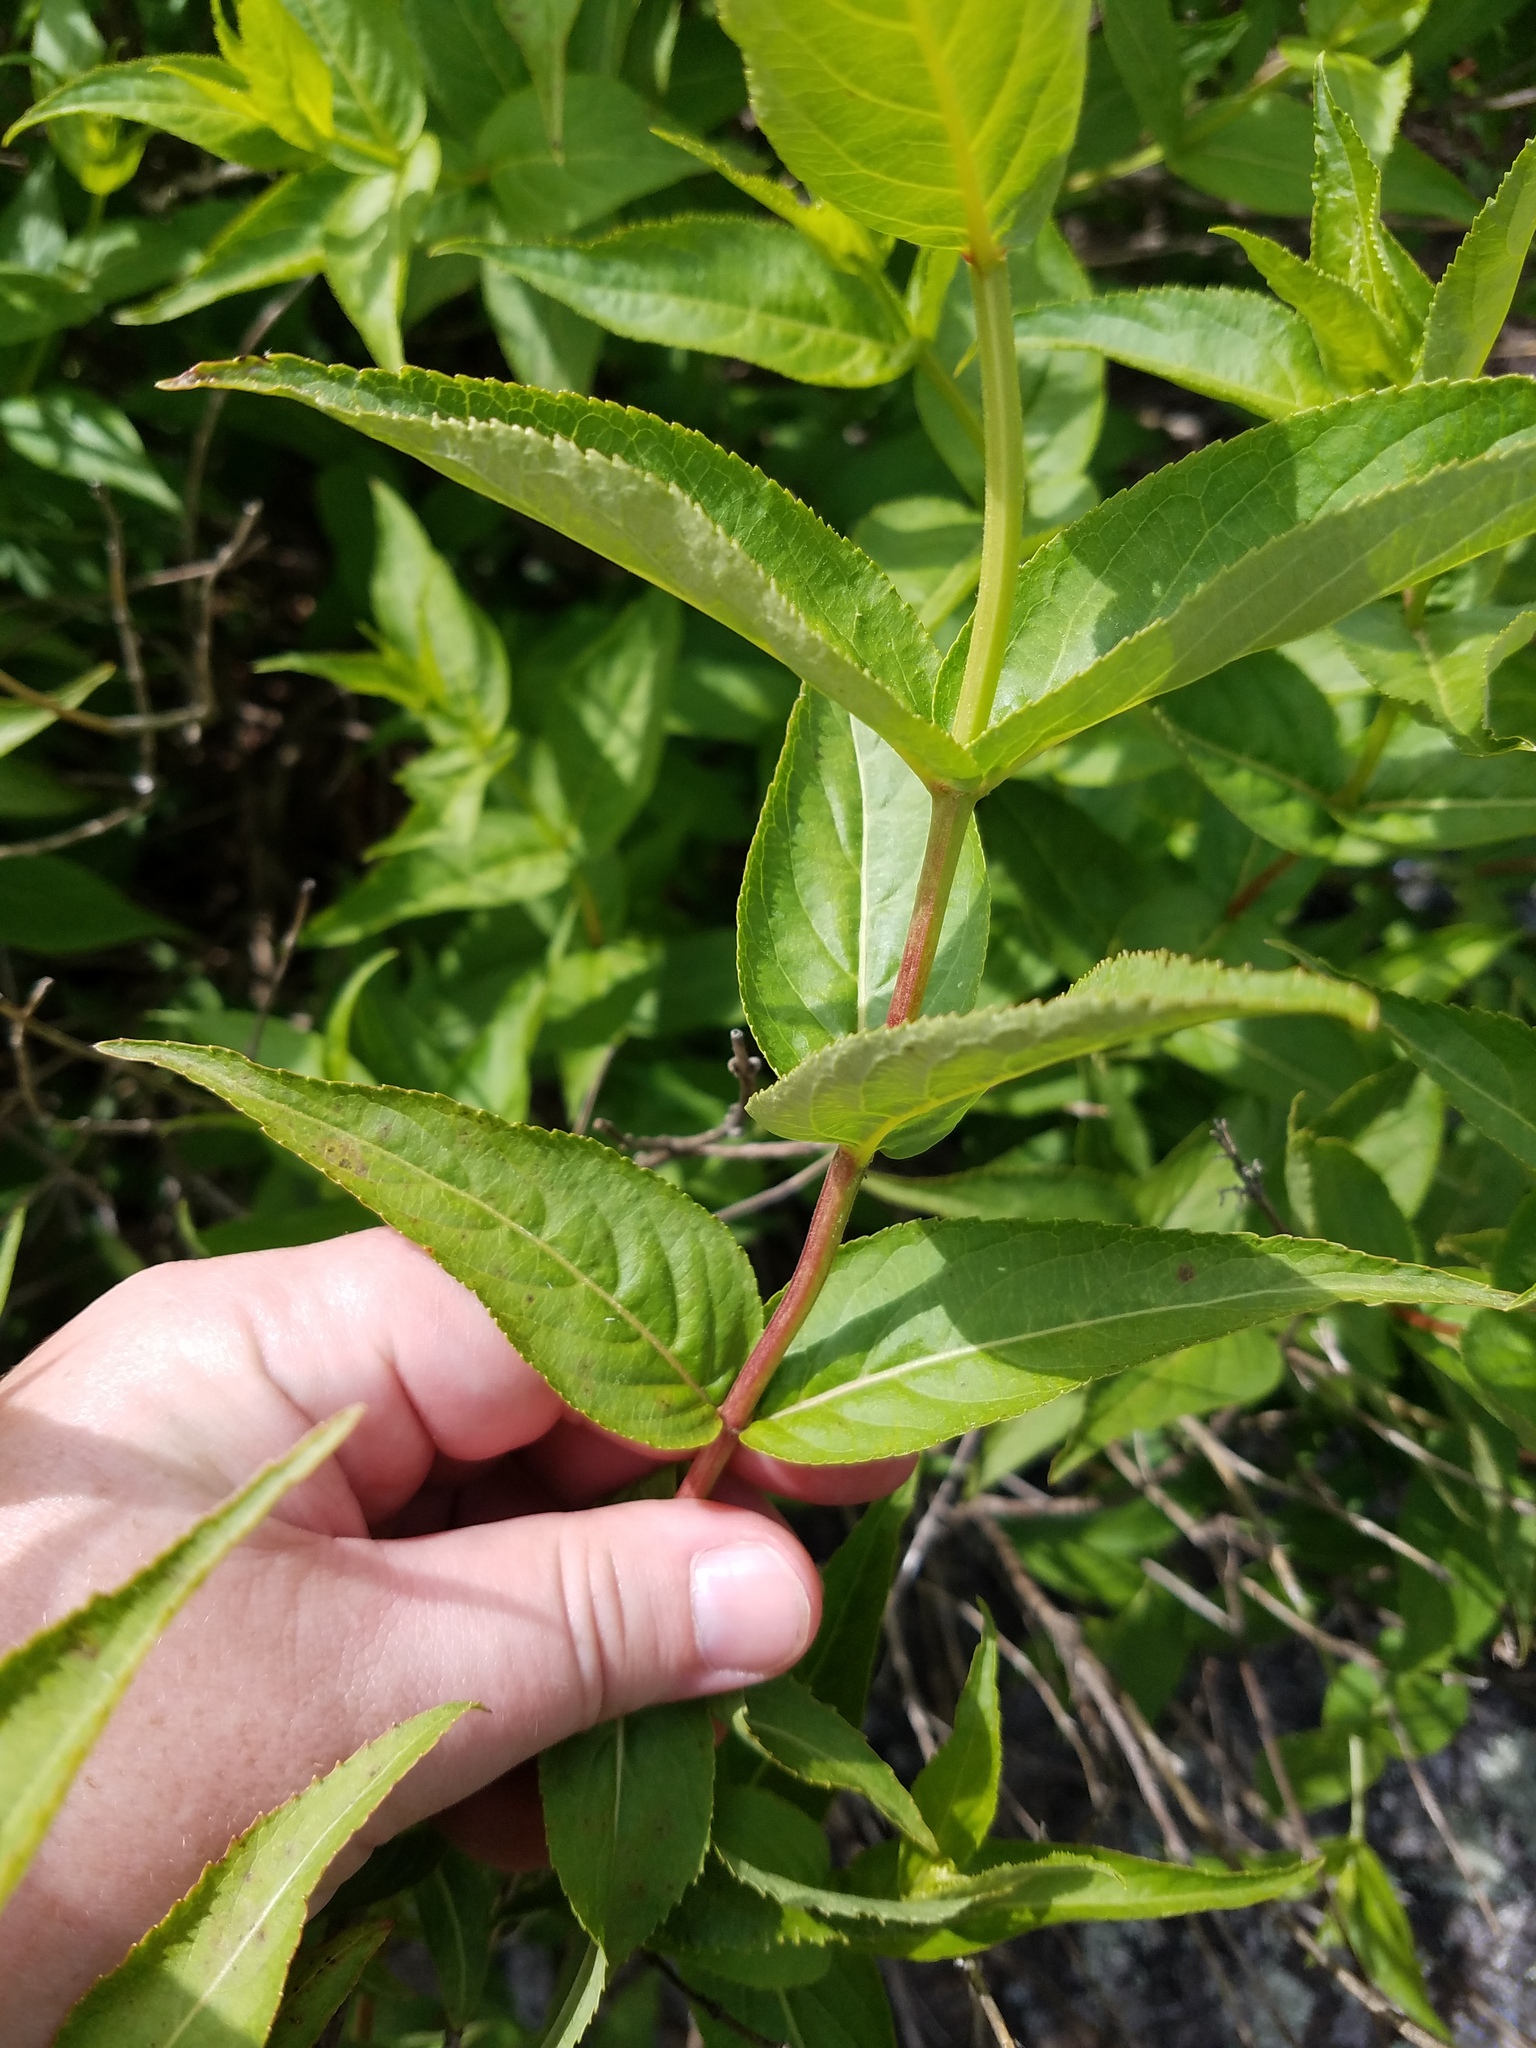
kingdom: Plantae
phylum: Tracheophyta
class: Magnoliopsida
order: Dipsacales
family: Caprifoliaceae
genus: Diervilla
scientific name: Diervilla sessilifolia
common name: Bush-honeysuckle
